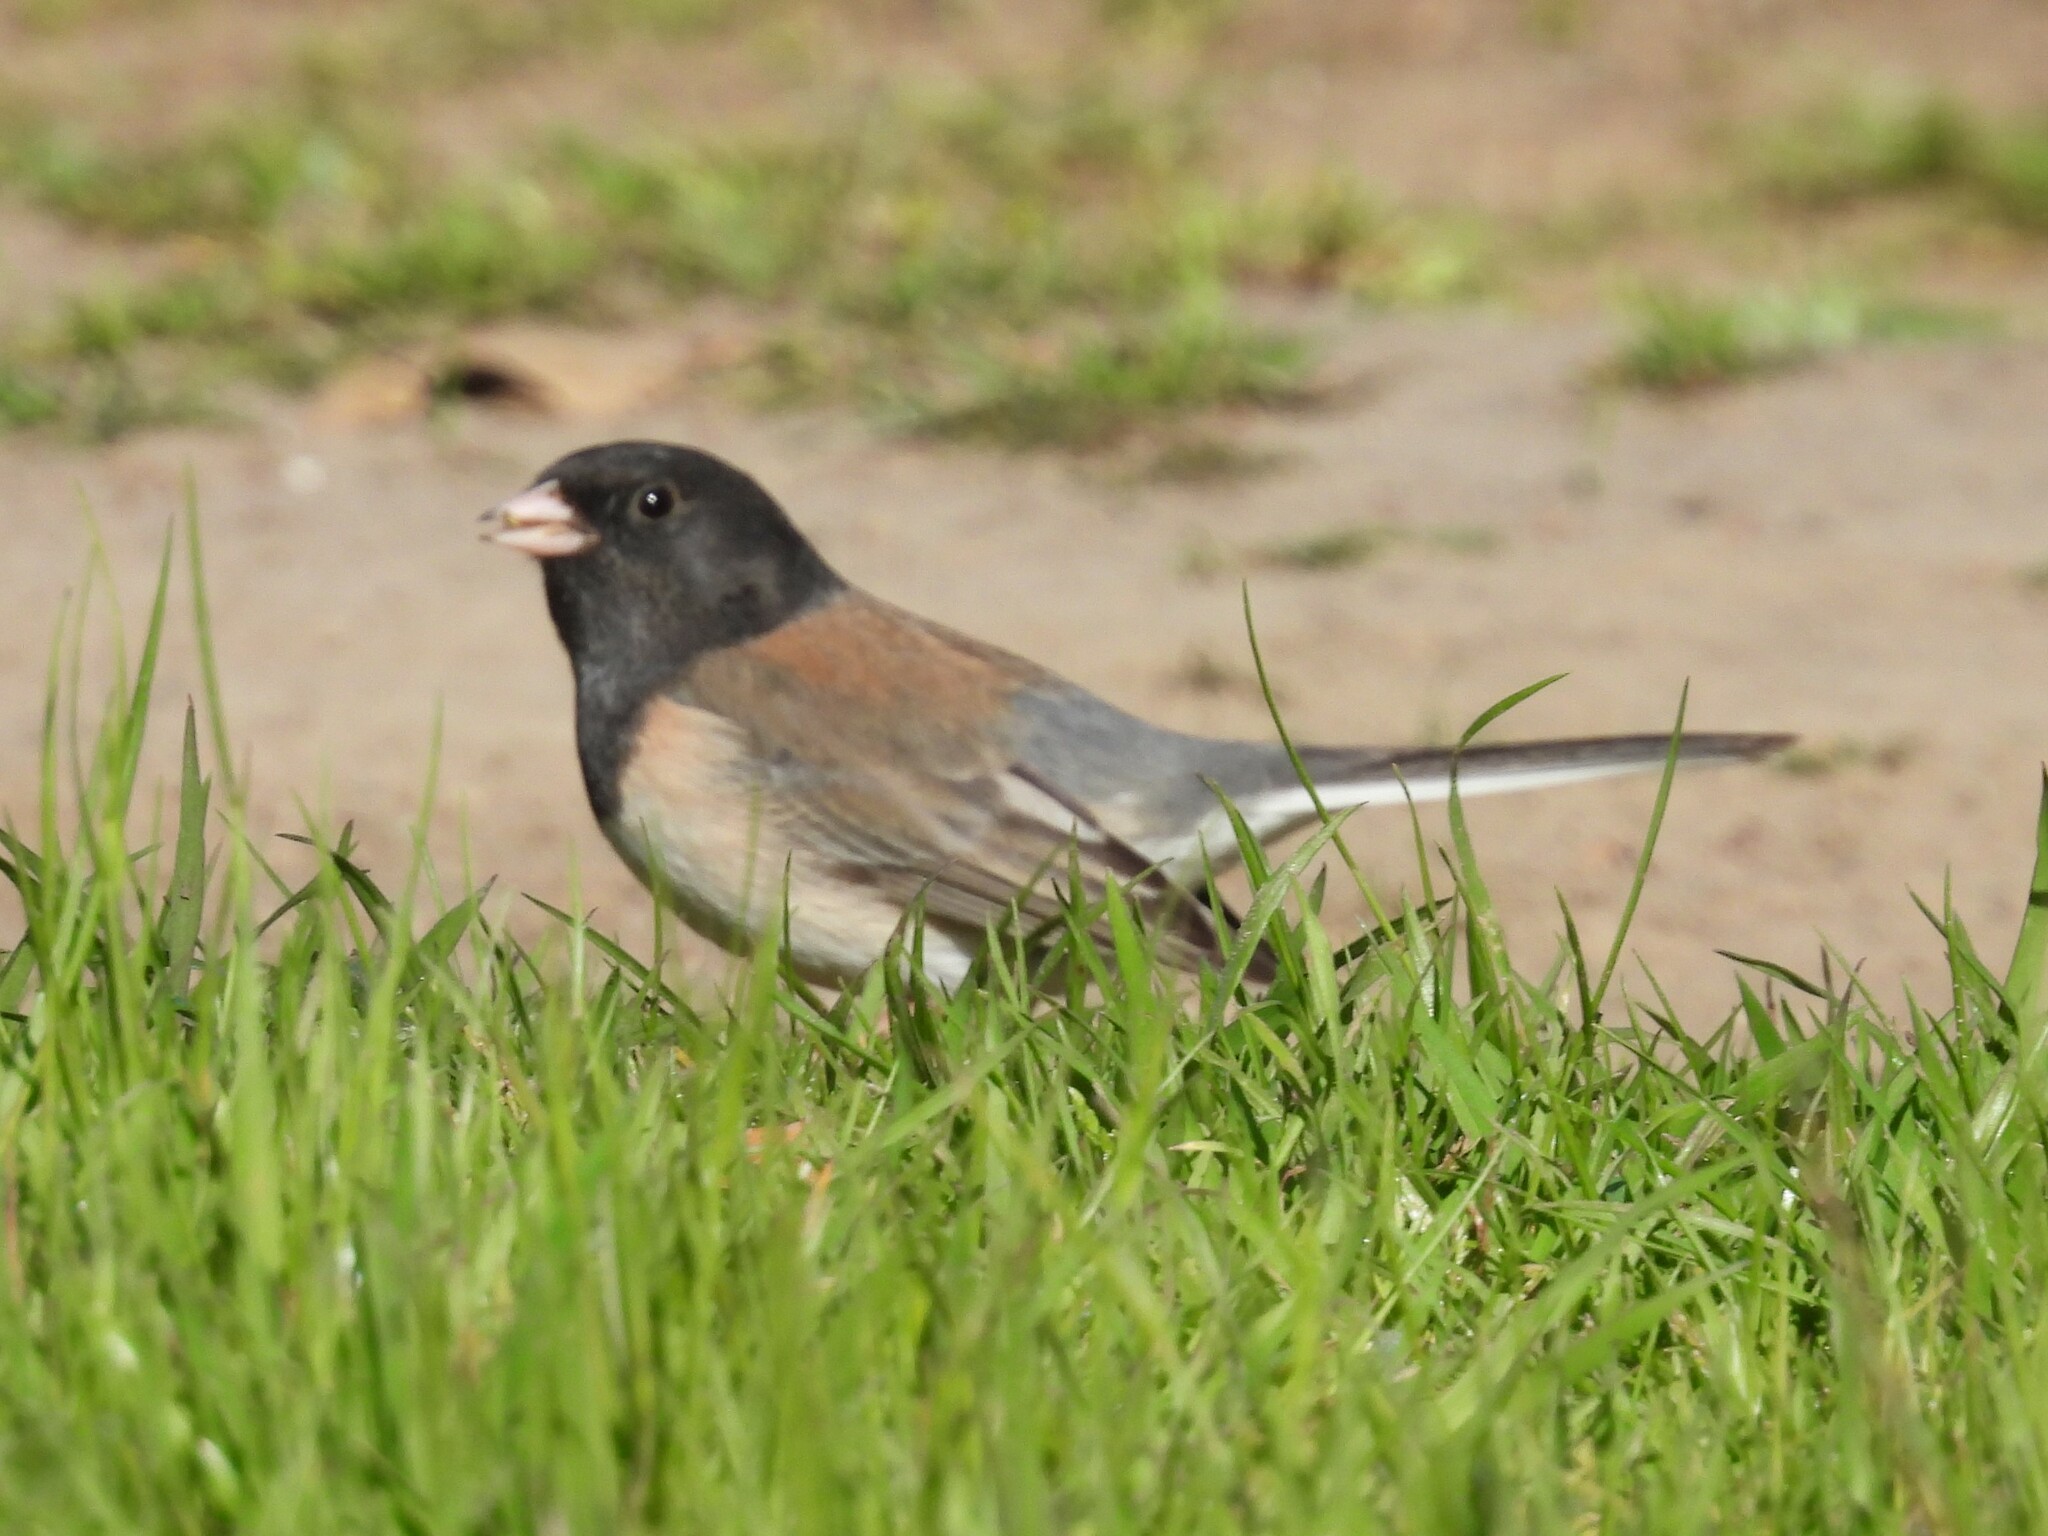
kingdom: Animalia
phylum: Chordata
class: Aves
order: Passeriformes
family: Passerellidae
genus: Junco
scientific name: Junco hyemalis
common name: Dark-eyed junco
